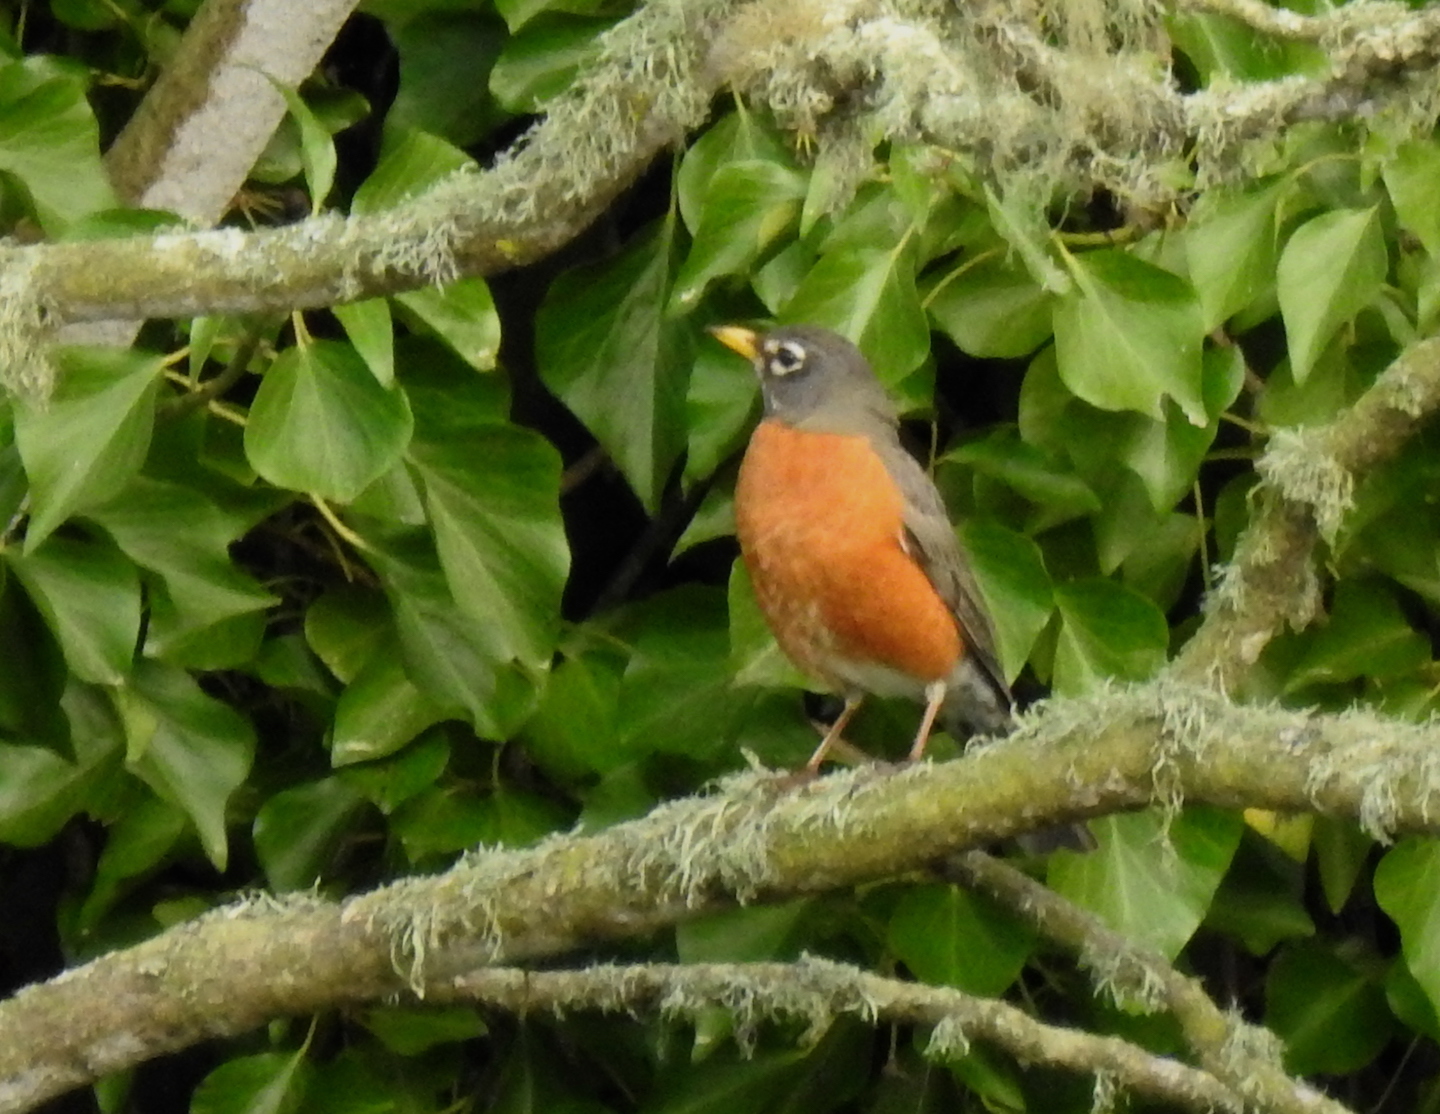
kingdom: Animalia
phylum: Chordata
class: Aves
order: Passeriformes
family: Turdidae
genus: Turdus
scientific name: Turdus migratorius
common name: American robin
